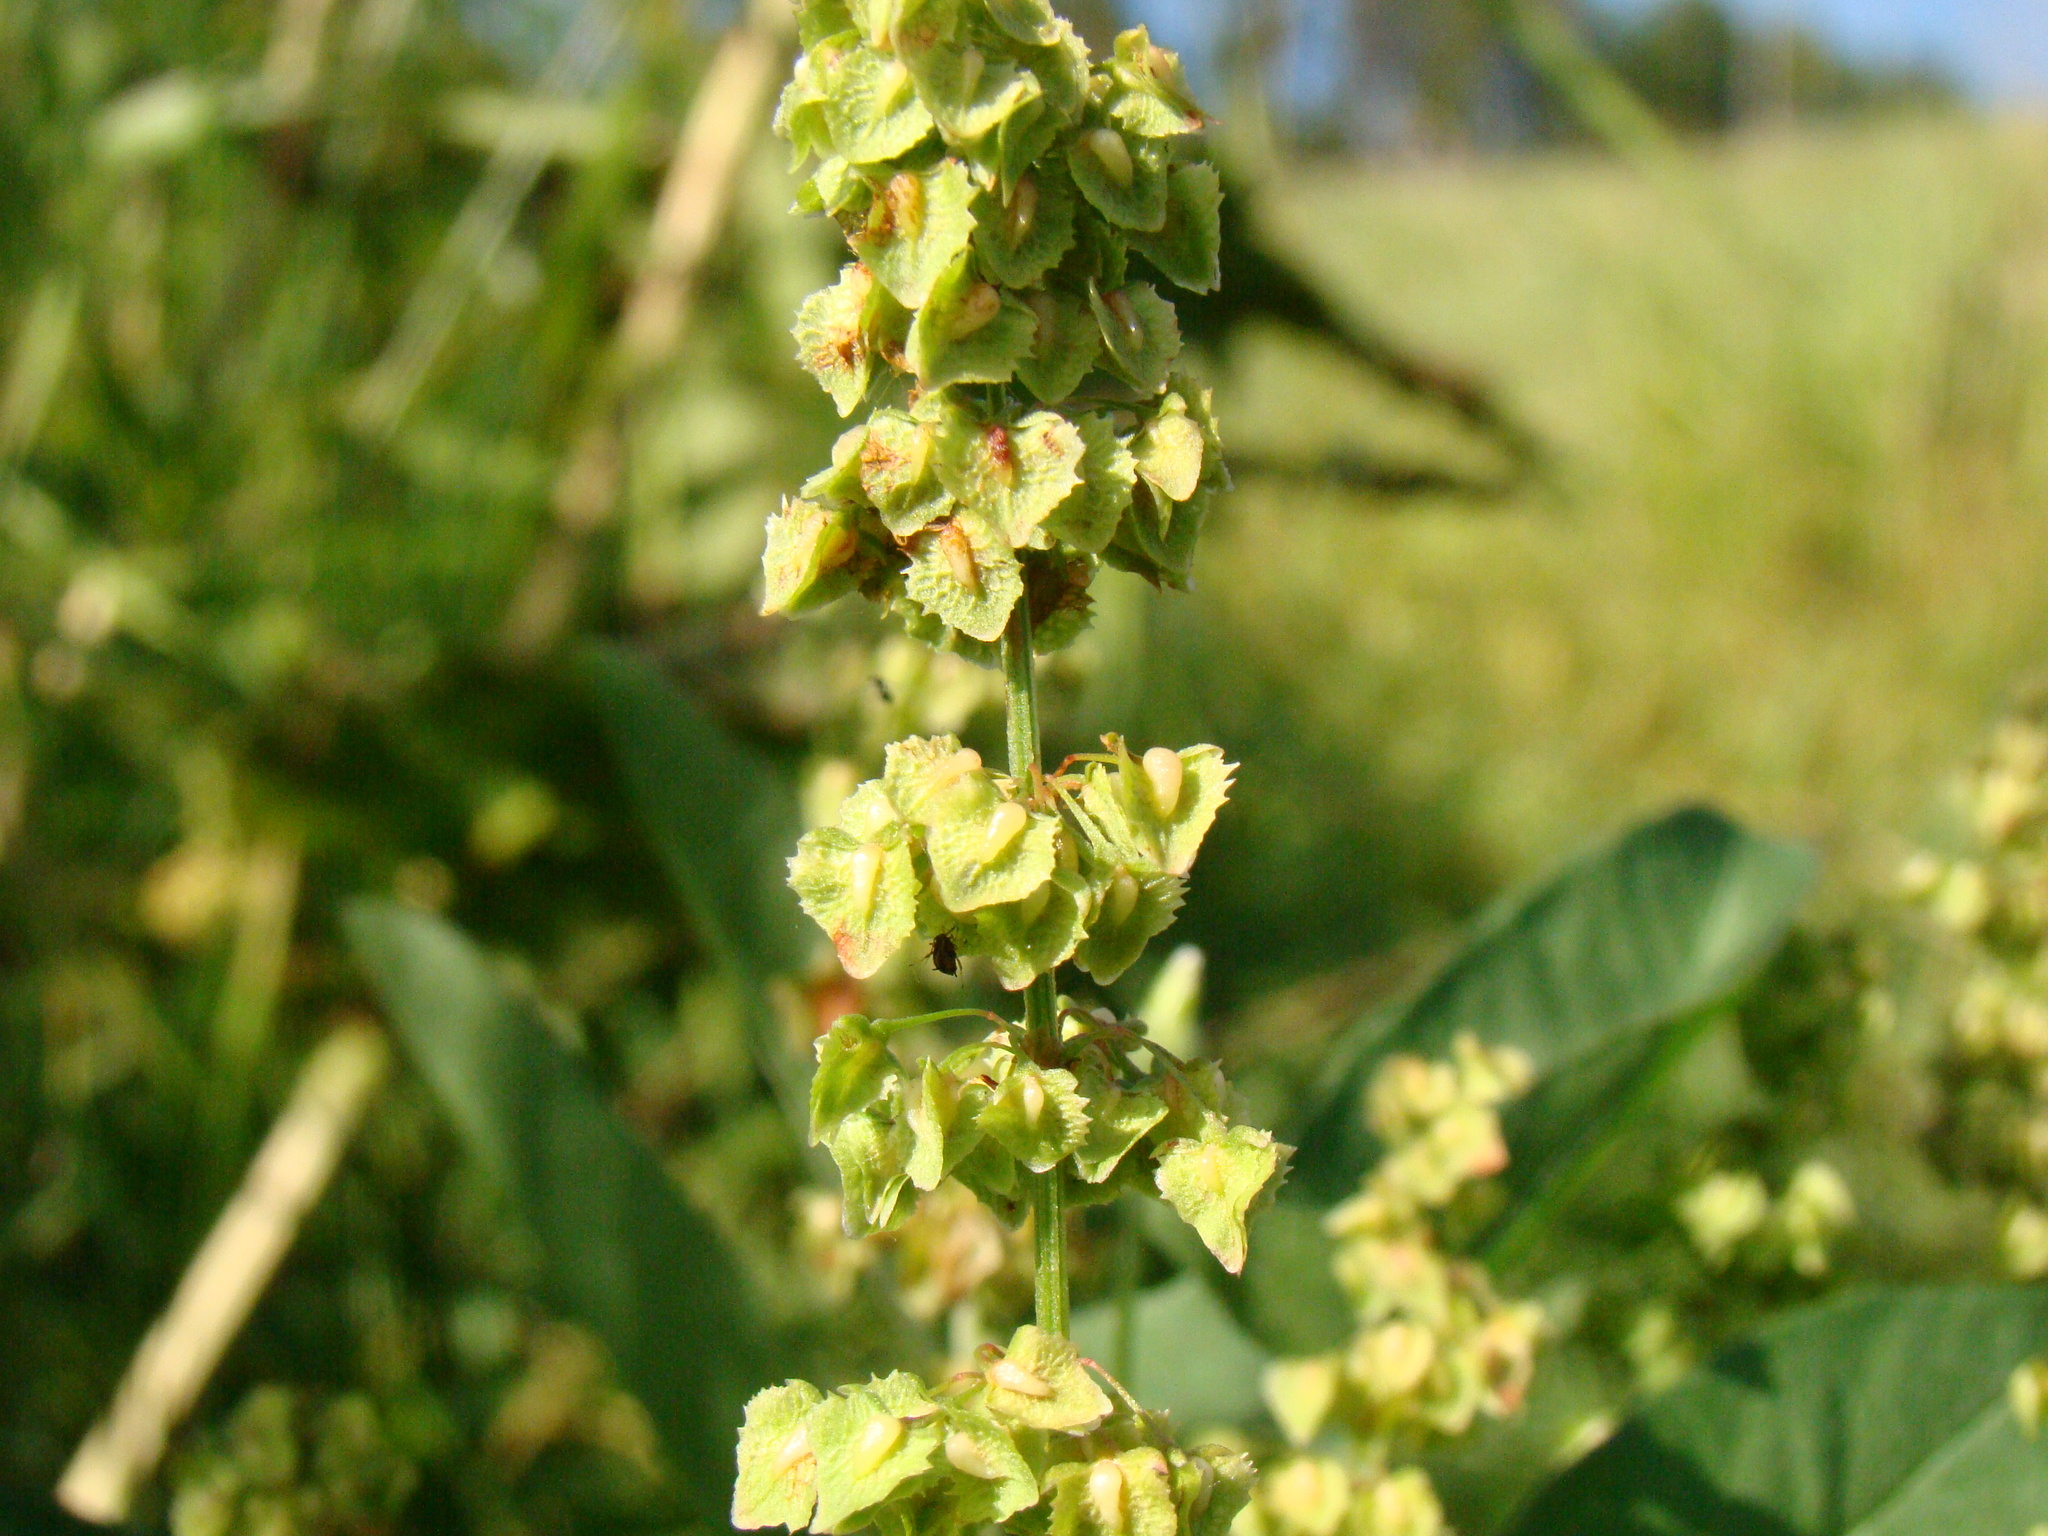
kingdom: Plantae
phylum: Tracheophyta
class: Magnoliopsida
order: Caryophyllales
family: Polygonaceae
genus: Rumex
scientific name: Rumex stenophyllus
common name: Narrowleaf dock
